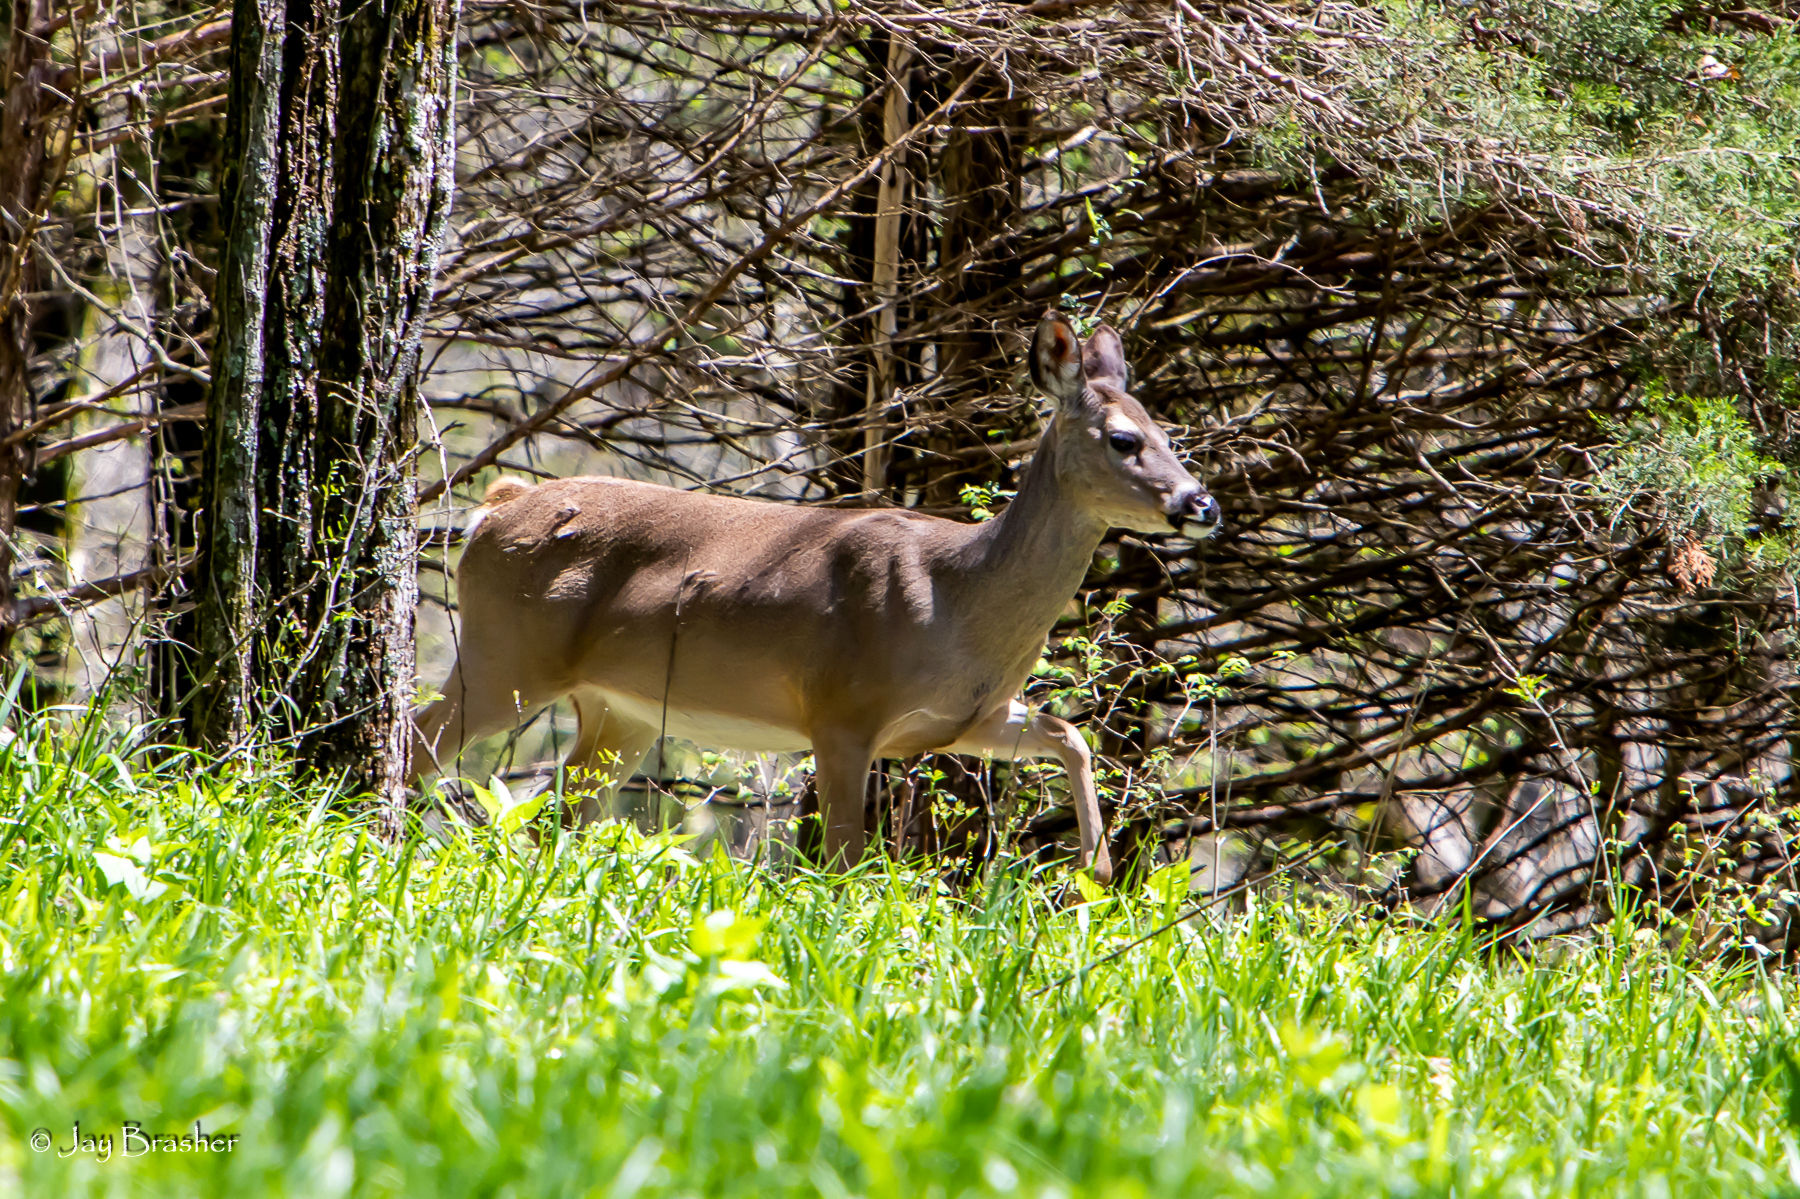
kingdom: Animalia
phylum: Chordata
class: Mammalia
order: Artiodactyla
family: Cervidae
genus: Odocoileus
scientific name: Odocoileus virginianus
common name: White-tailed deer
